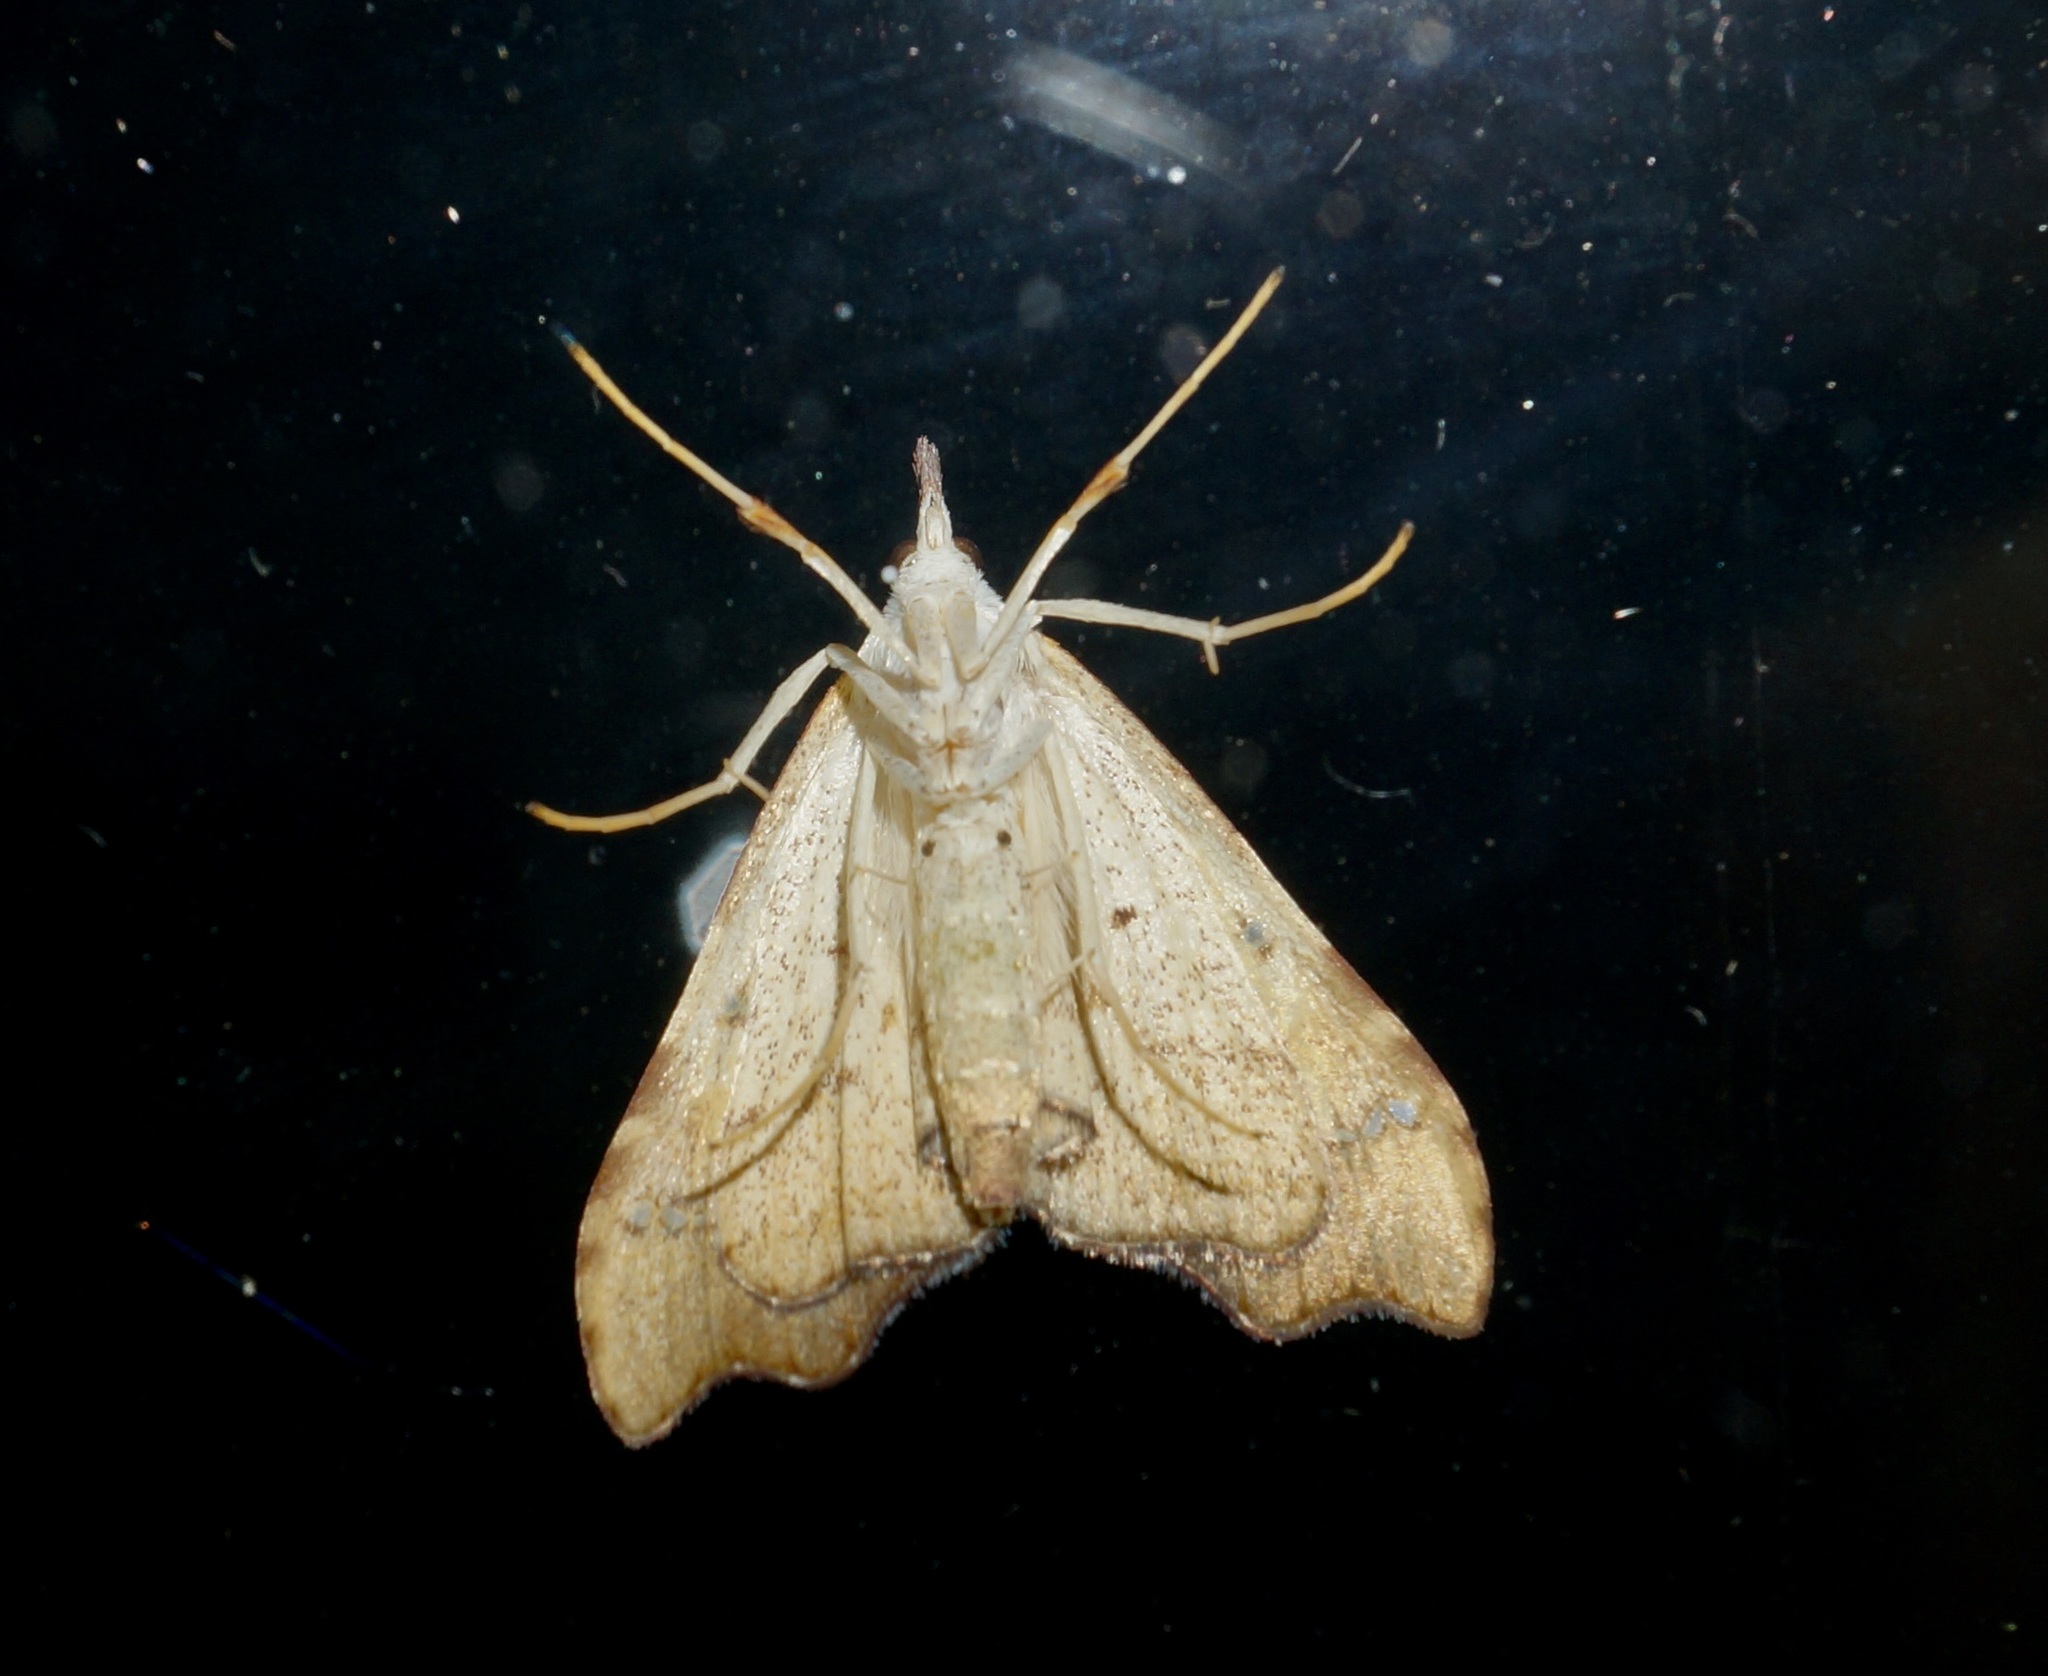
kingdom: Animalia
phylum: Arthropoda
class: Insecta
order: Lepidoptera
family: Crambidae
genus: Deana
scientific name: Deana hybreasalis
